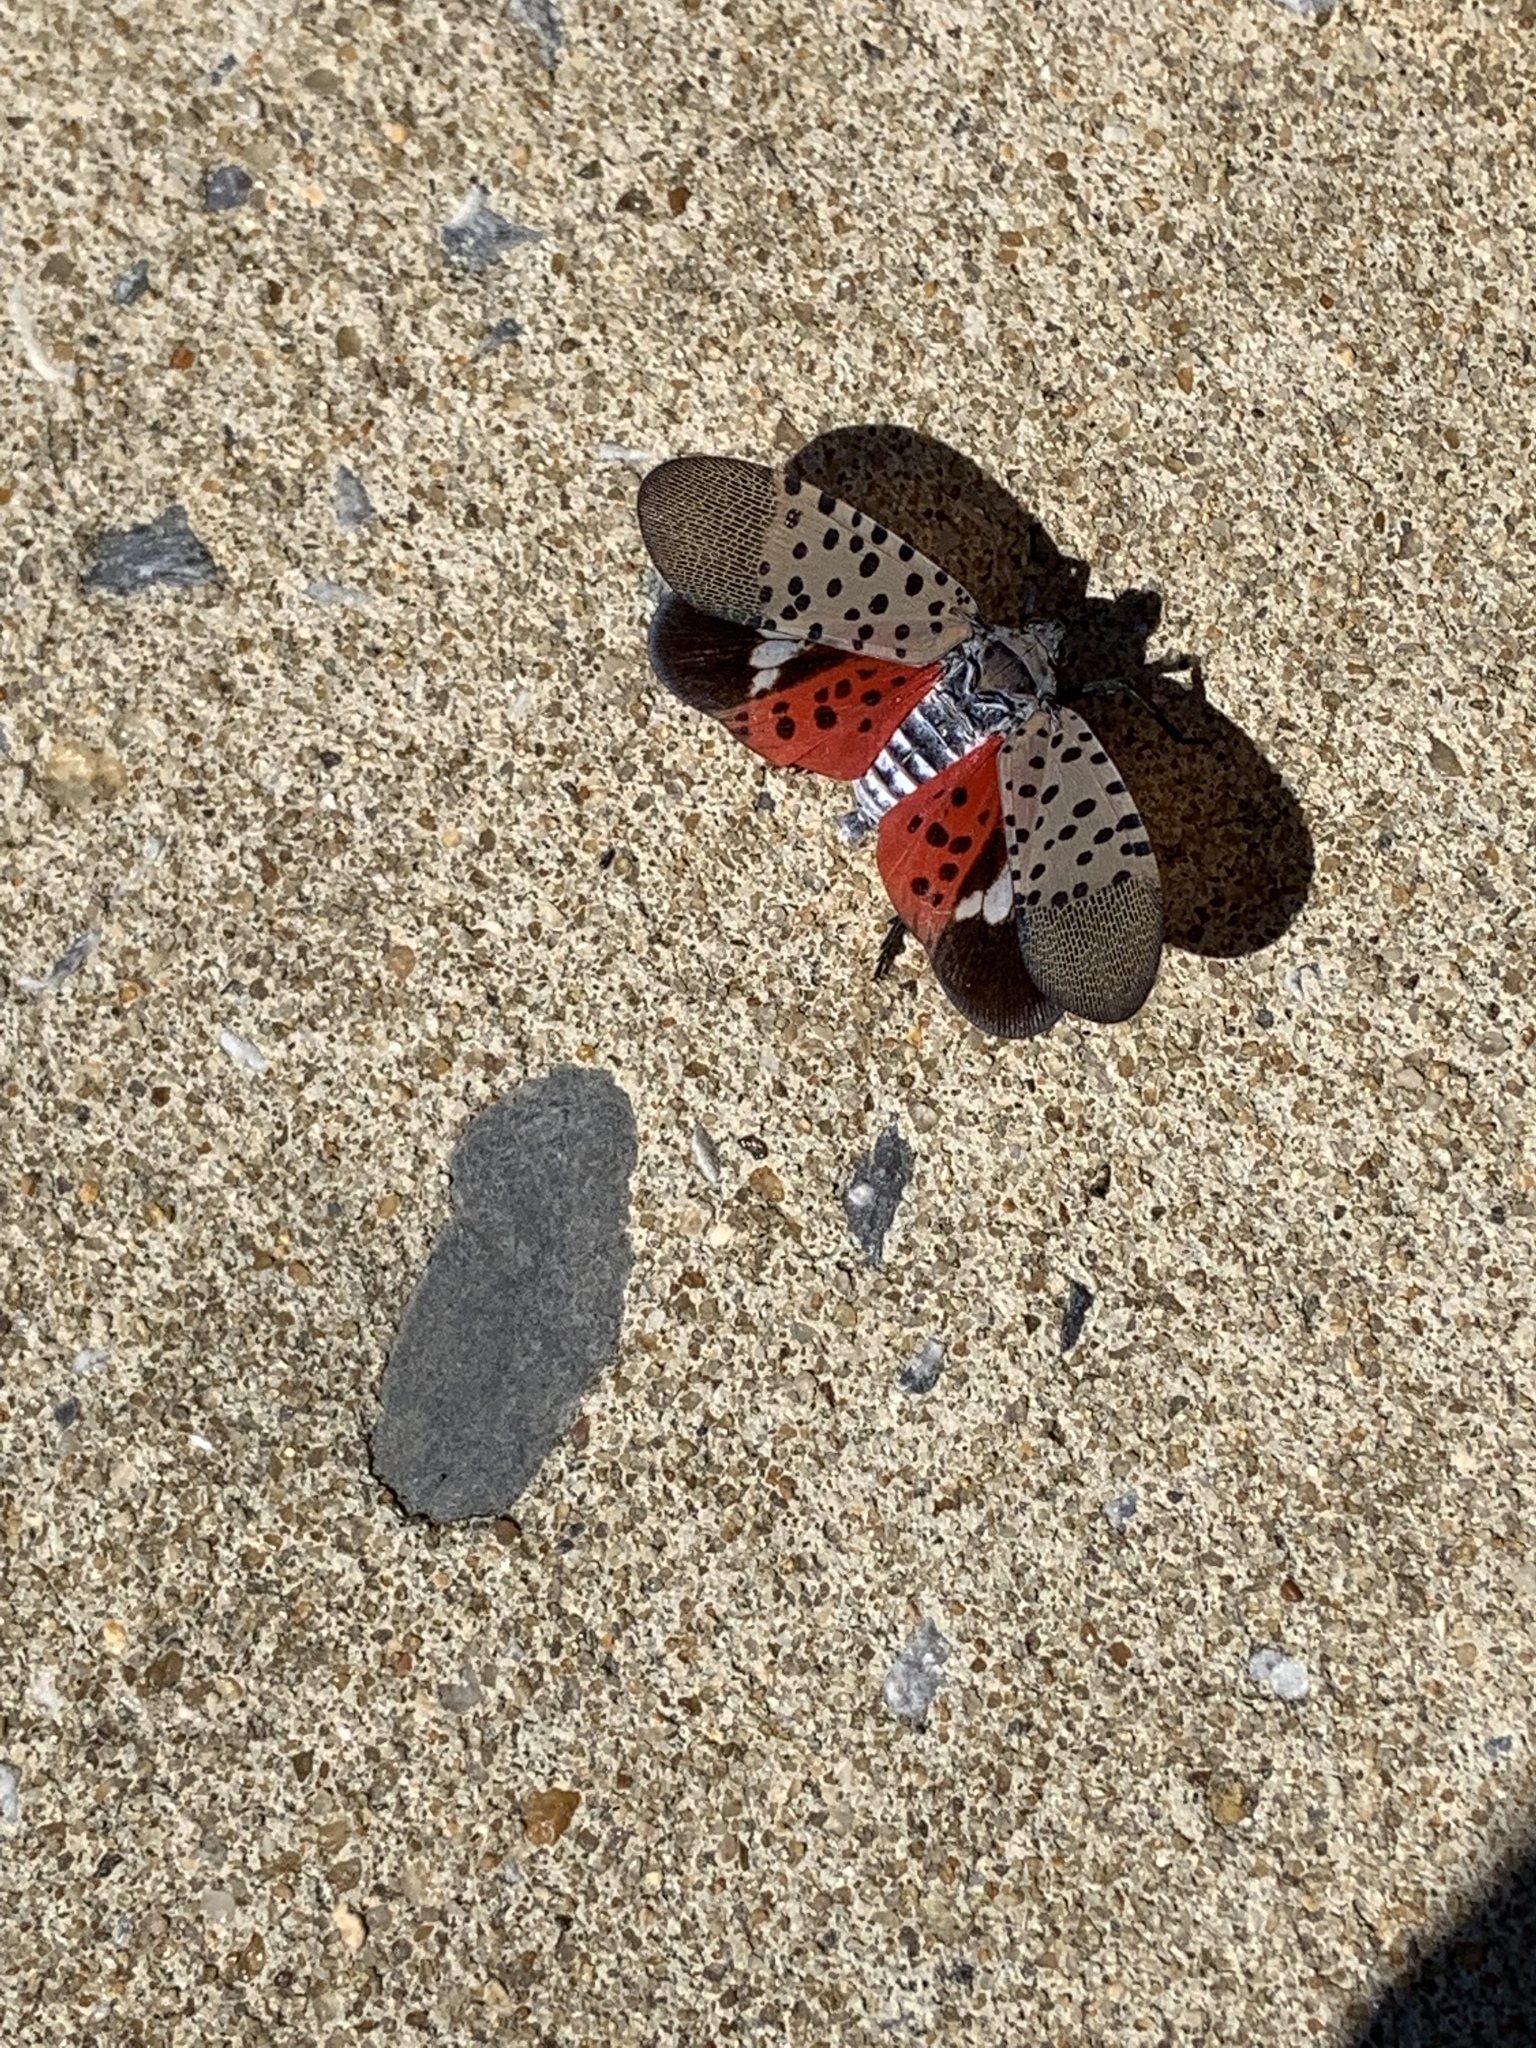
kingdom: Animalia
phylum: Arthropoda
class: Insecta
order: Hemiptera
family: Fulgoridae
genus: Lycorma
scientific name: Lycorma delicatula
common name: Spotted lanternfly
